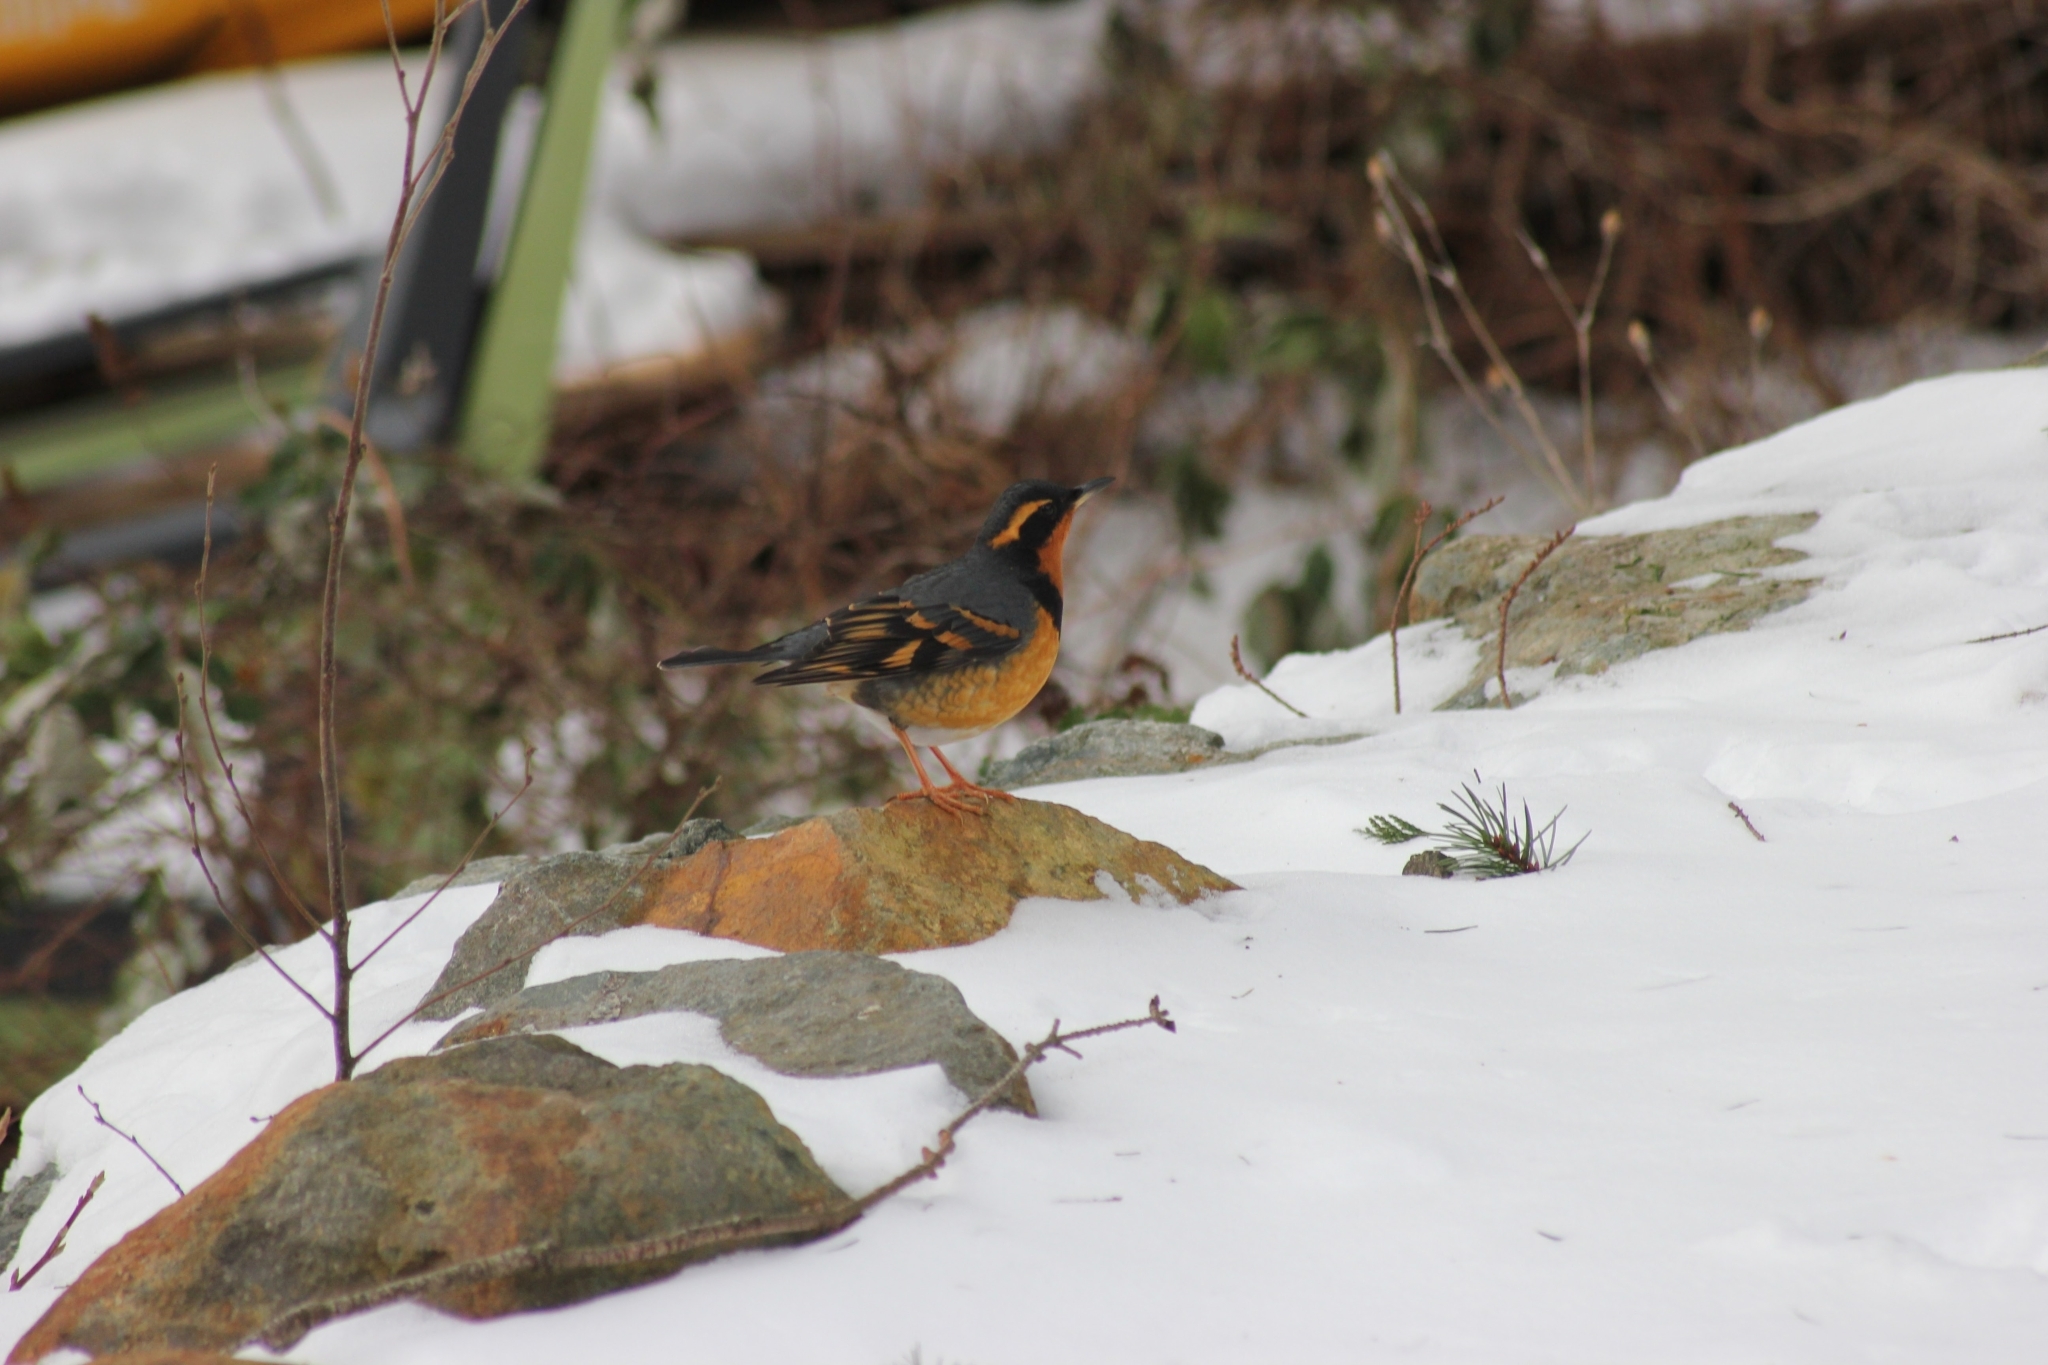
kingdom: Animalia
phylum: Chordata
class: Aves
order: Passeriformes
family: Turdidae
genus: Ixoreus
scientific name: Ixoreus naevius
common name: Varied thrush
